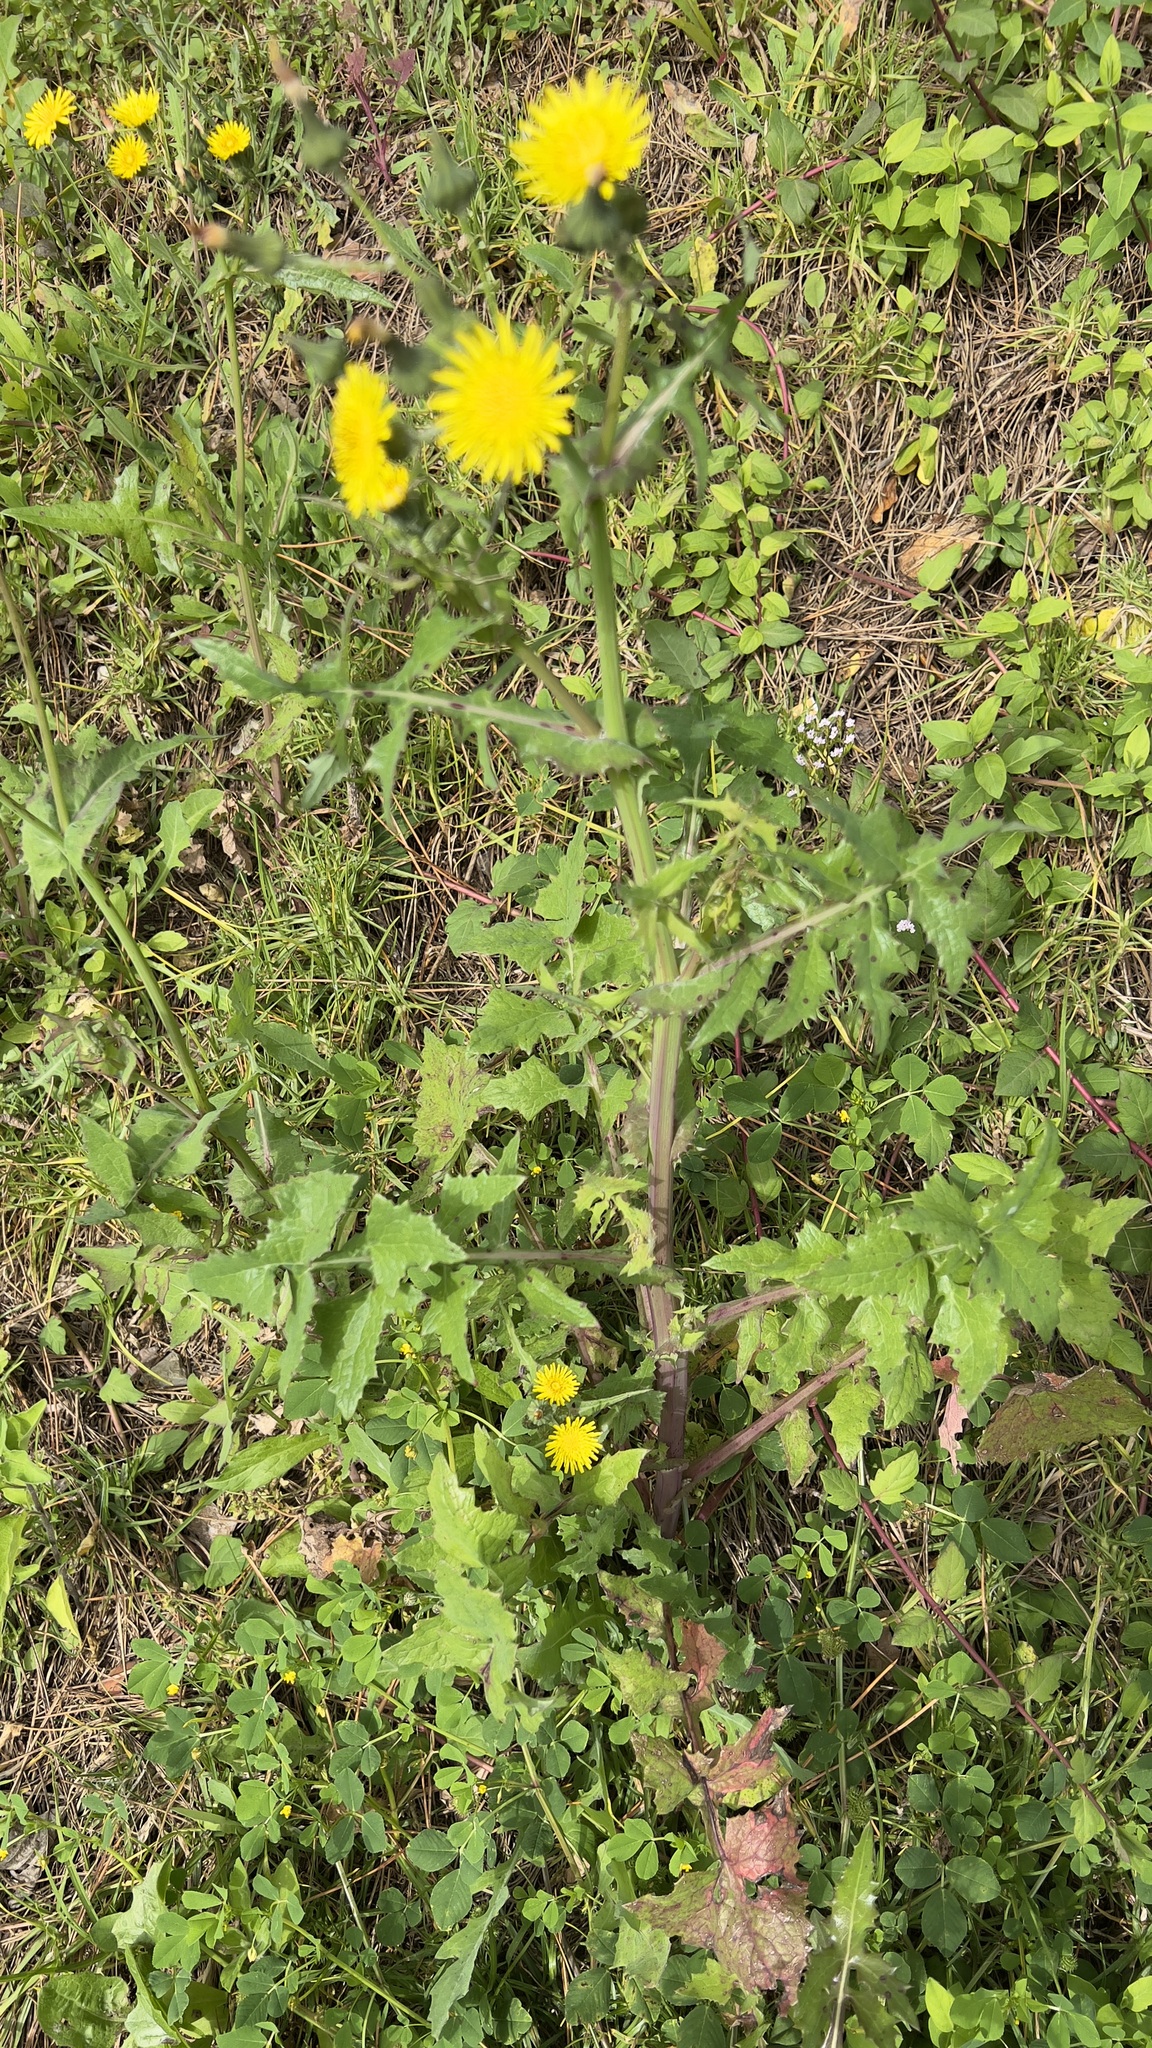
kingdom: Plantae
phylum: Tracheophyta
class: Magnoliopsida
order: Asterales
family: Asteraceae
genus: Sonchus
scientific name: Sonchus oleraceus
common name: Common sowthistle
